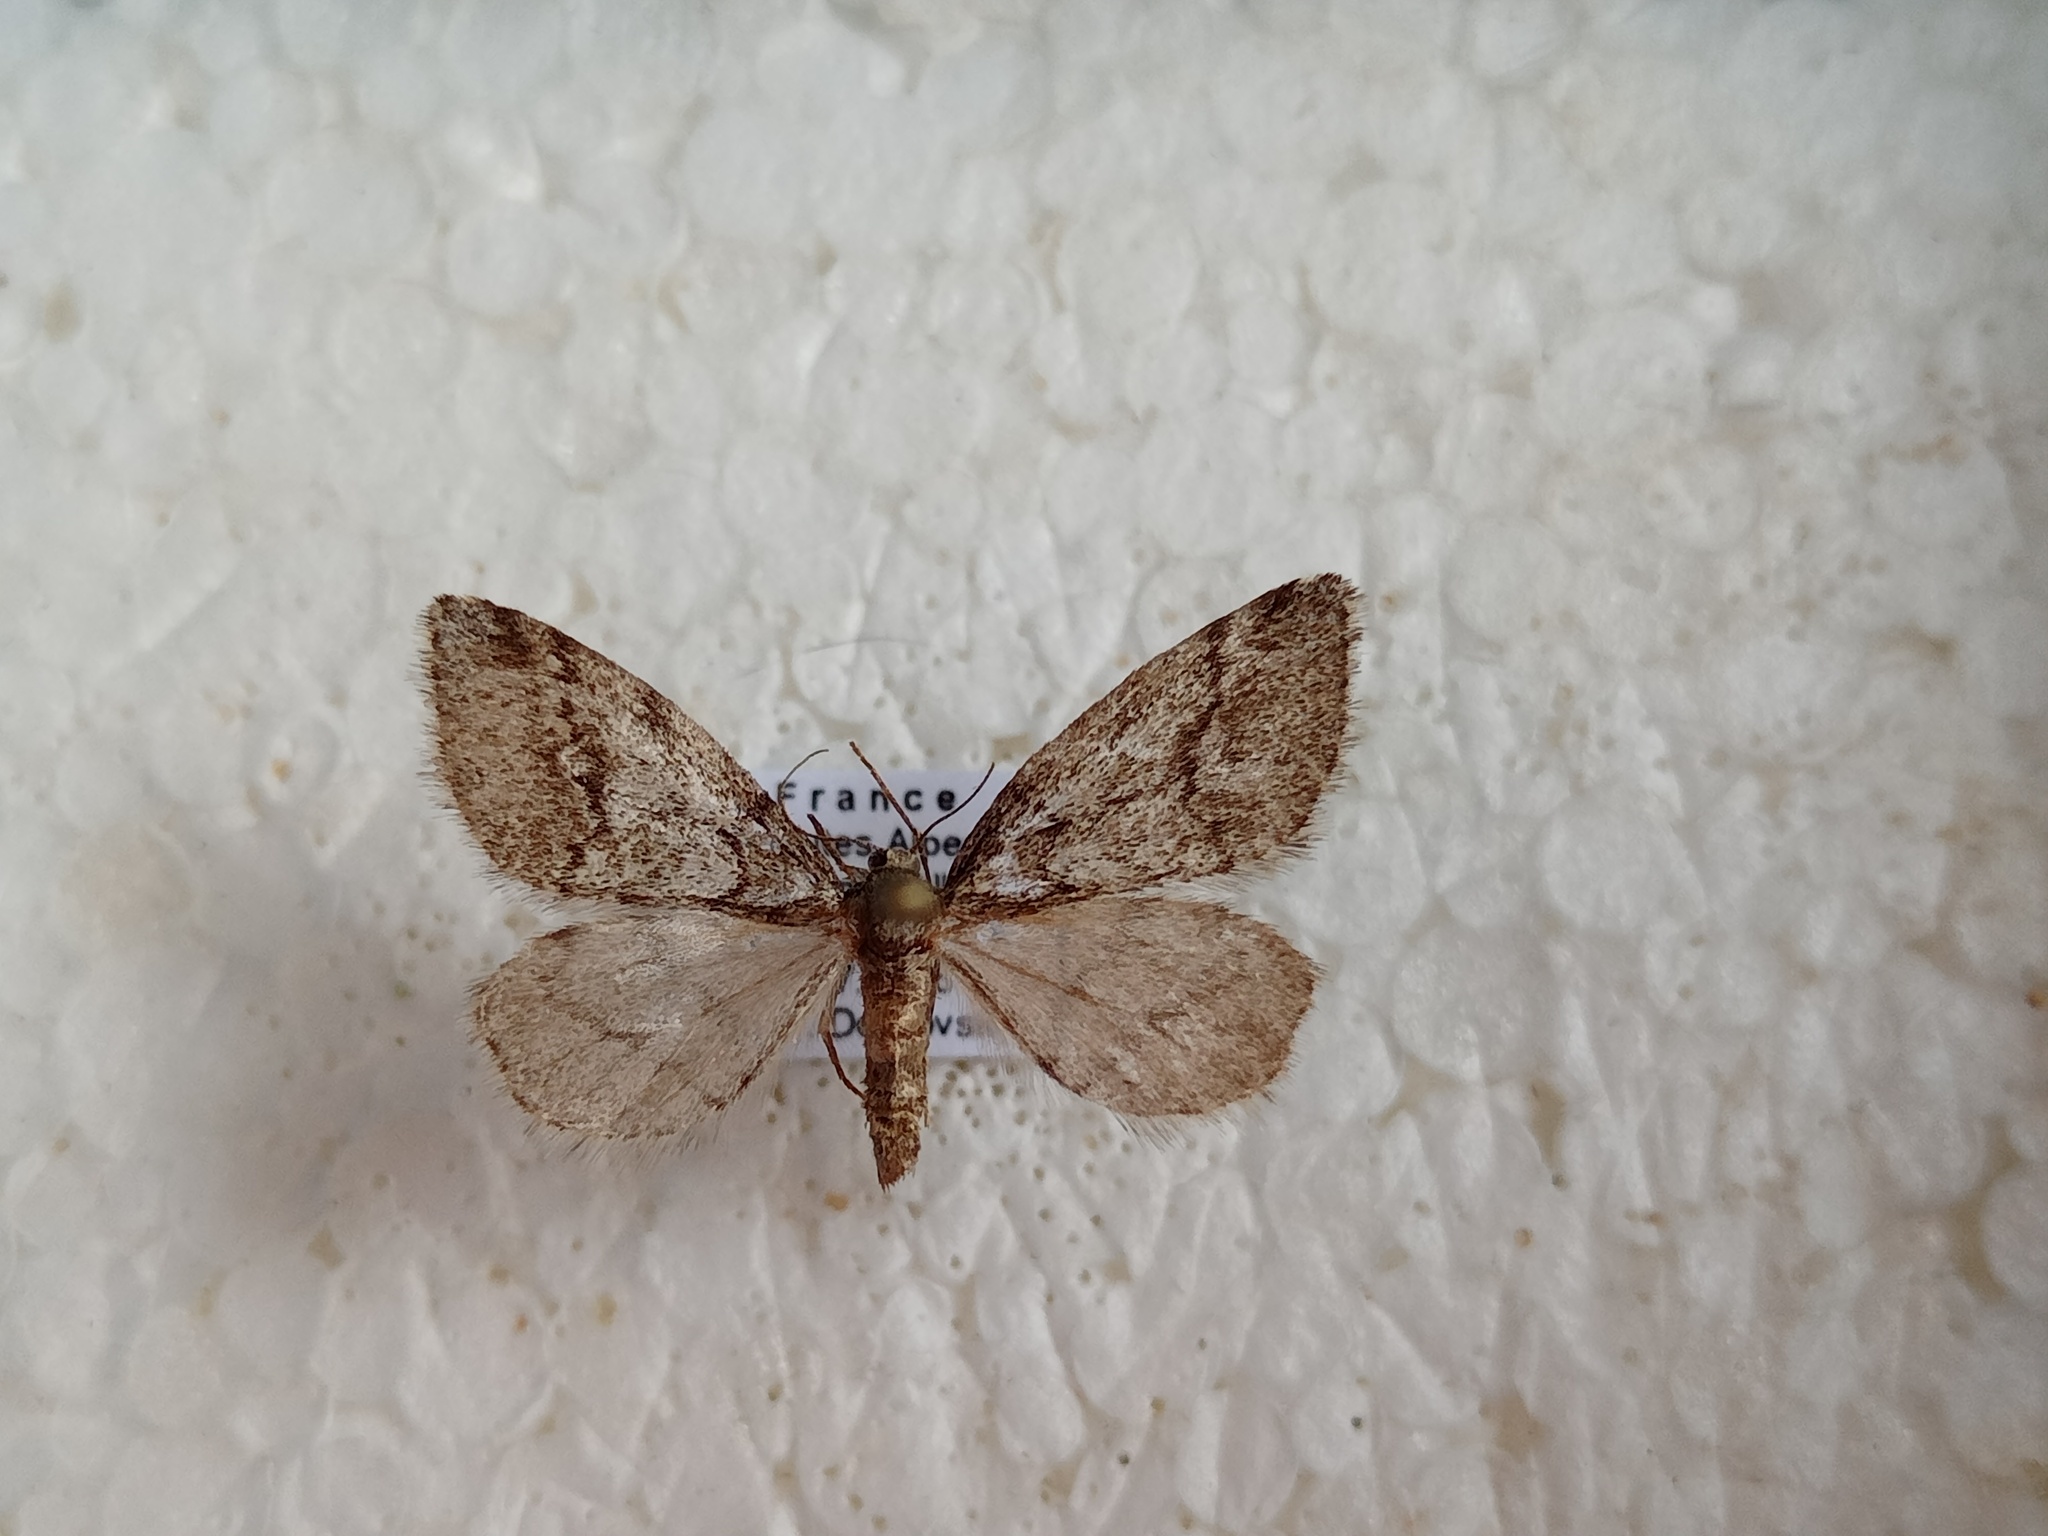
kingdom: Animalia
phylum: Arthropoda
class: Insecta
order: Lepidoptera
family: Geometridae
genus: Tephronia
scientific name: Tephronia lhommaria
